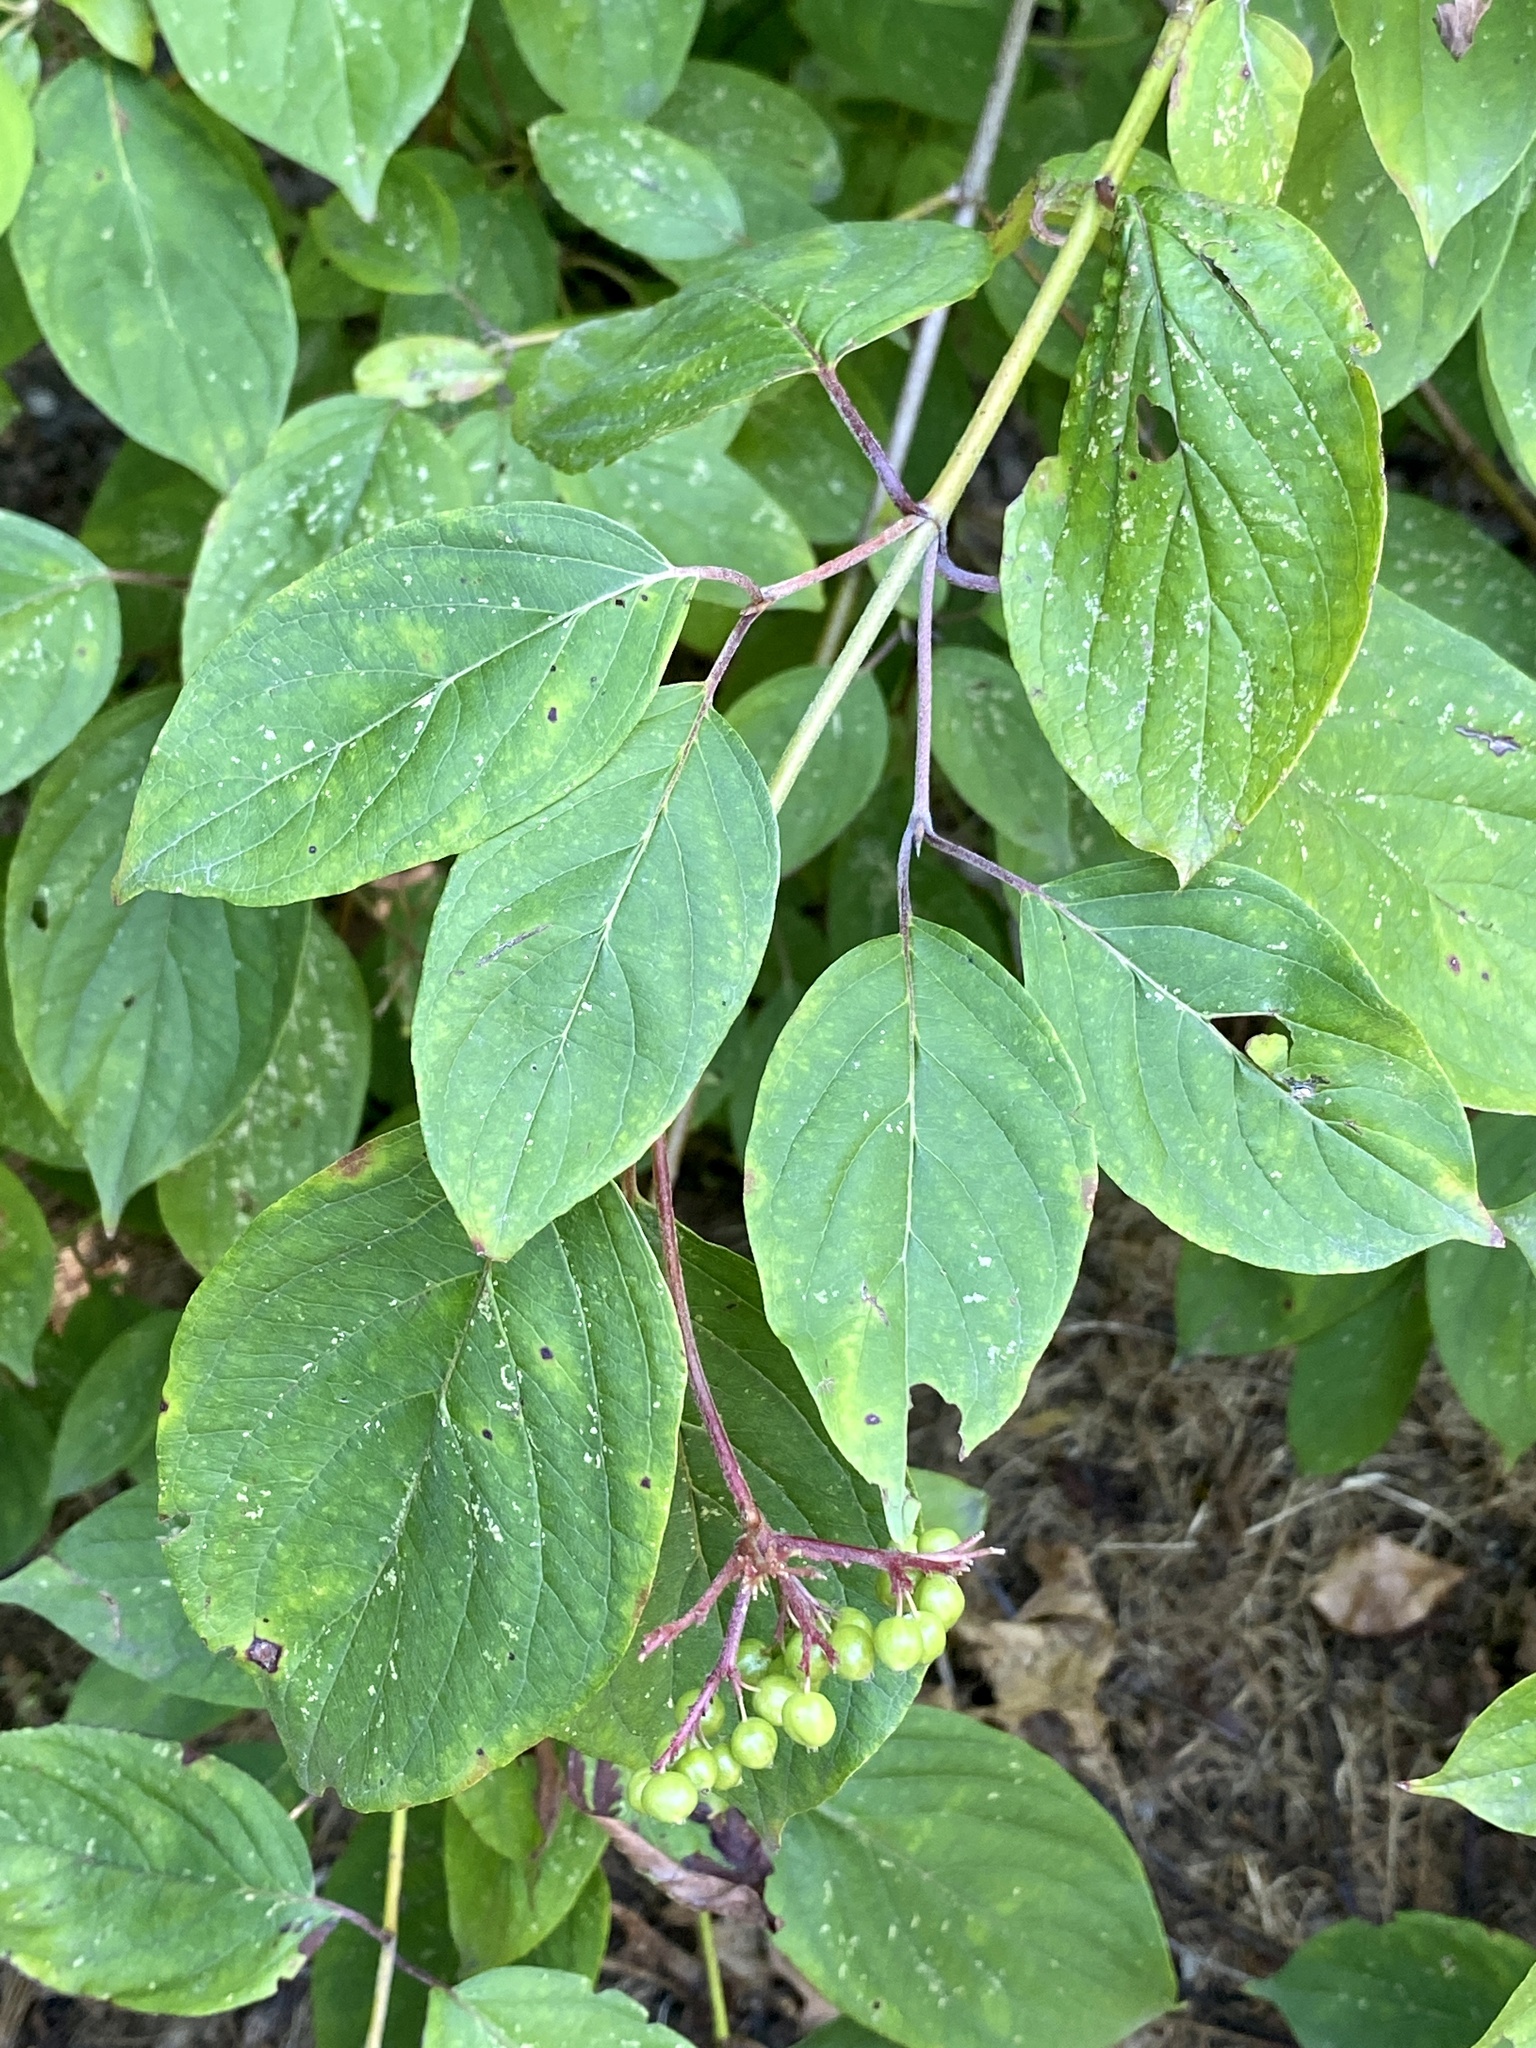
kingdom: Plantae
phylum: Tracheophyta
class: Magnoliopsida
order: Cornales
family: Cornaceae
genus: Cornus
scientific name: Cornus amomum
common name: Silky dogwood
